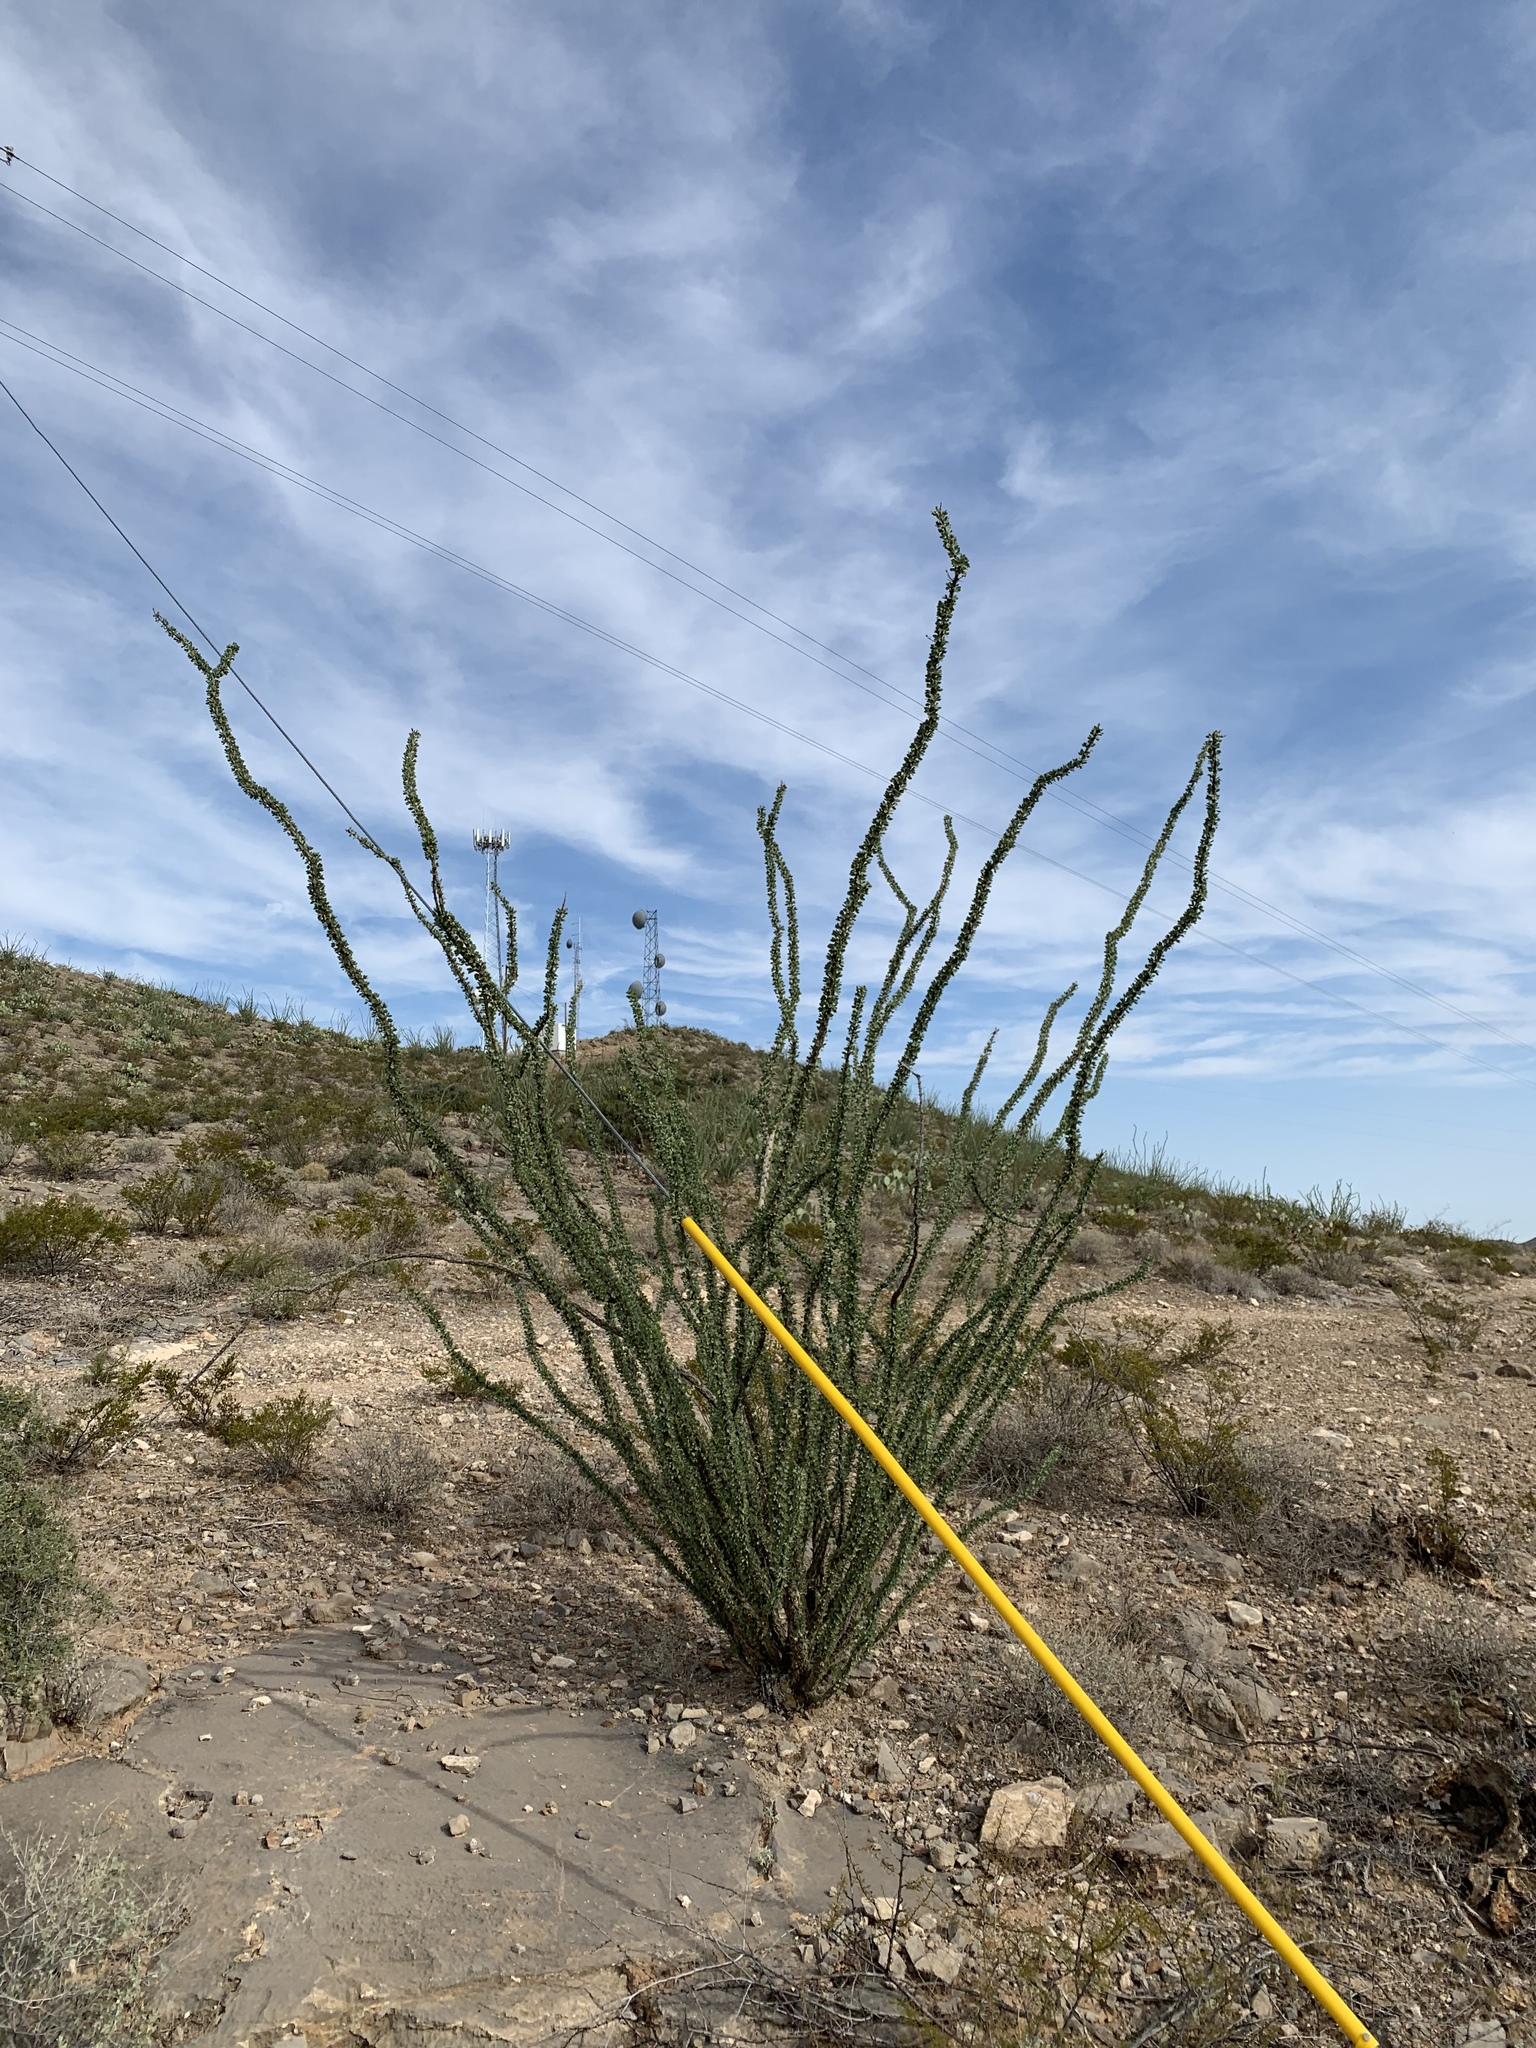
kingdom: Plantae
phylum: Tracheophyta
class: Magnoliopsida
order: Ericales
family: Fouquieriaceae
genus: Fouquieria
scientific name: Fouquieria splendens
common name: Vine-cactus
